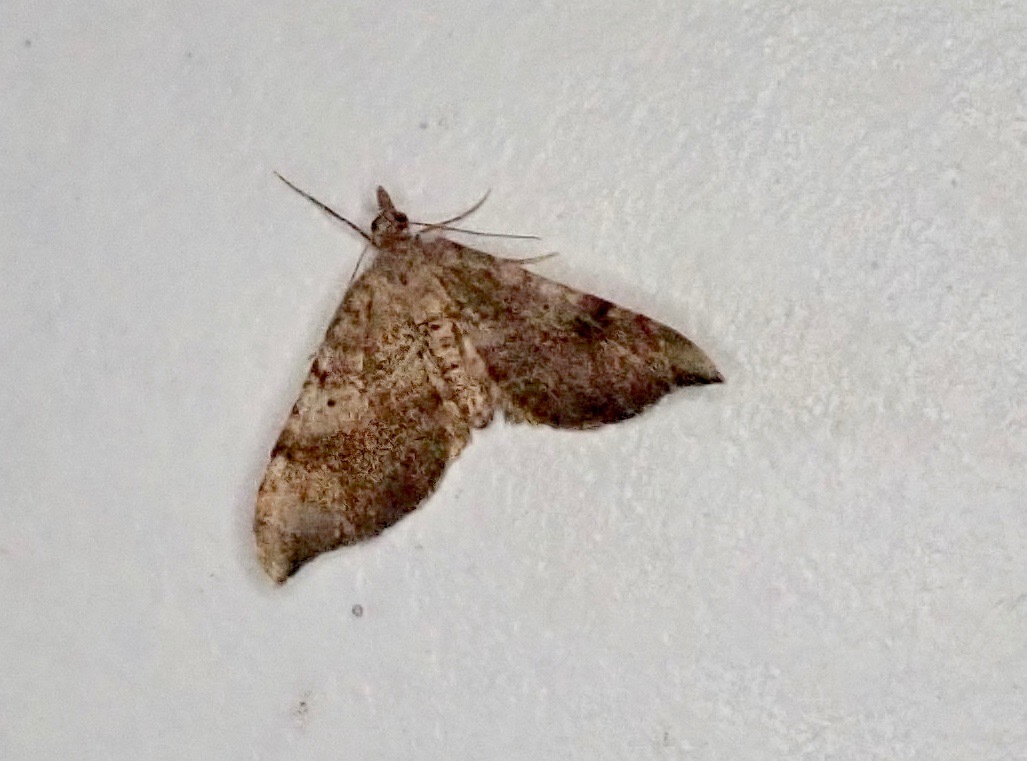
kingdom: Animalia
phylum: Arthropoda
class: Insecta
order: Lepidoptera
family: Geometridae
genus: Homodotis
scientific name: Homodotis megaspilata
